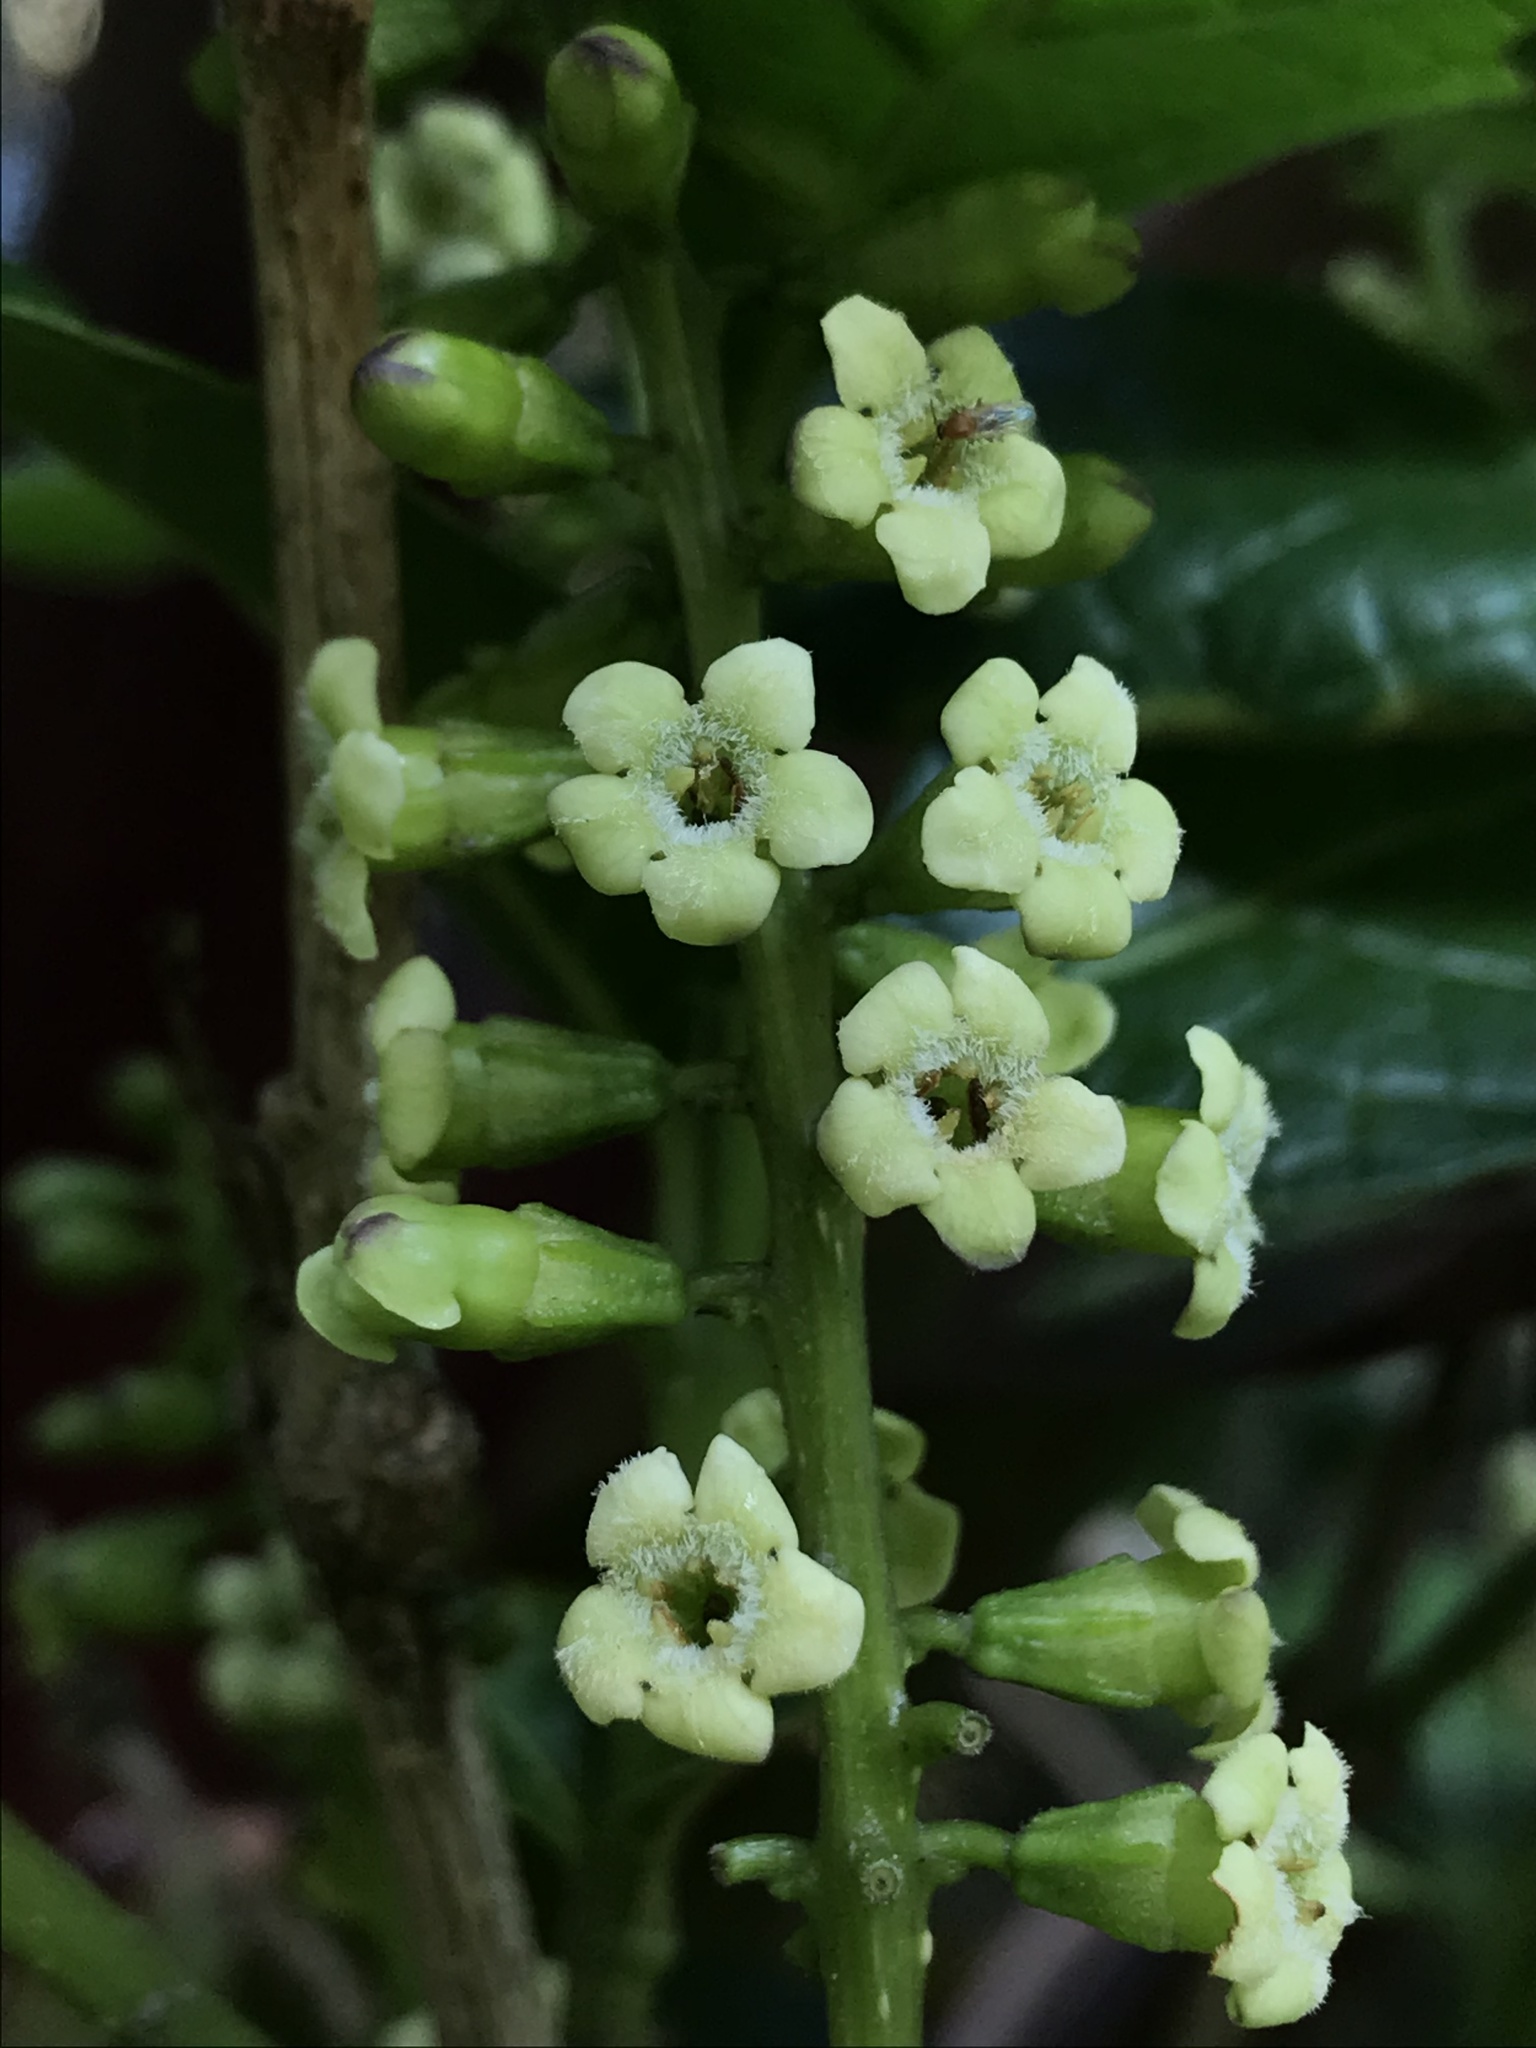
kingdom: Plantae
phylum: Tracheophyta
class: Magnoliopsida
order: Lamiales
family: Verbenaceae
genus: Citharexylum
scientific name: Citharexylum reticulatum
